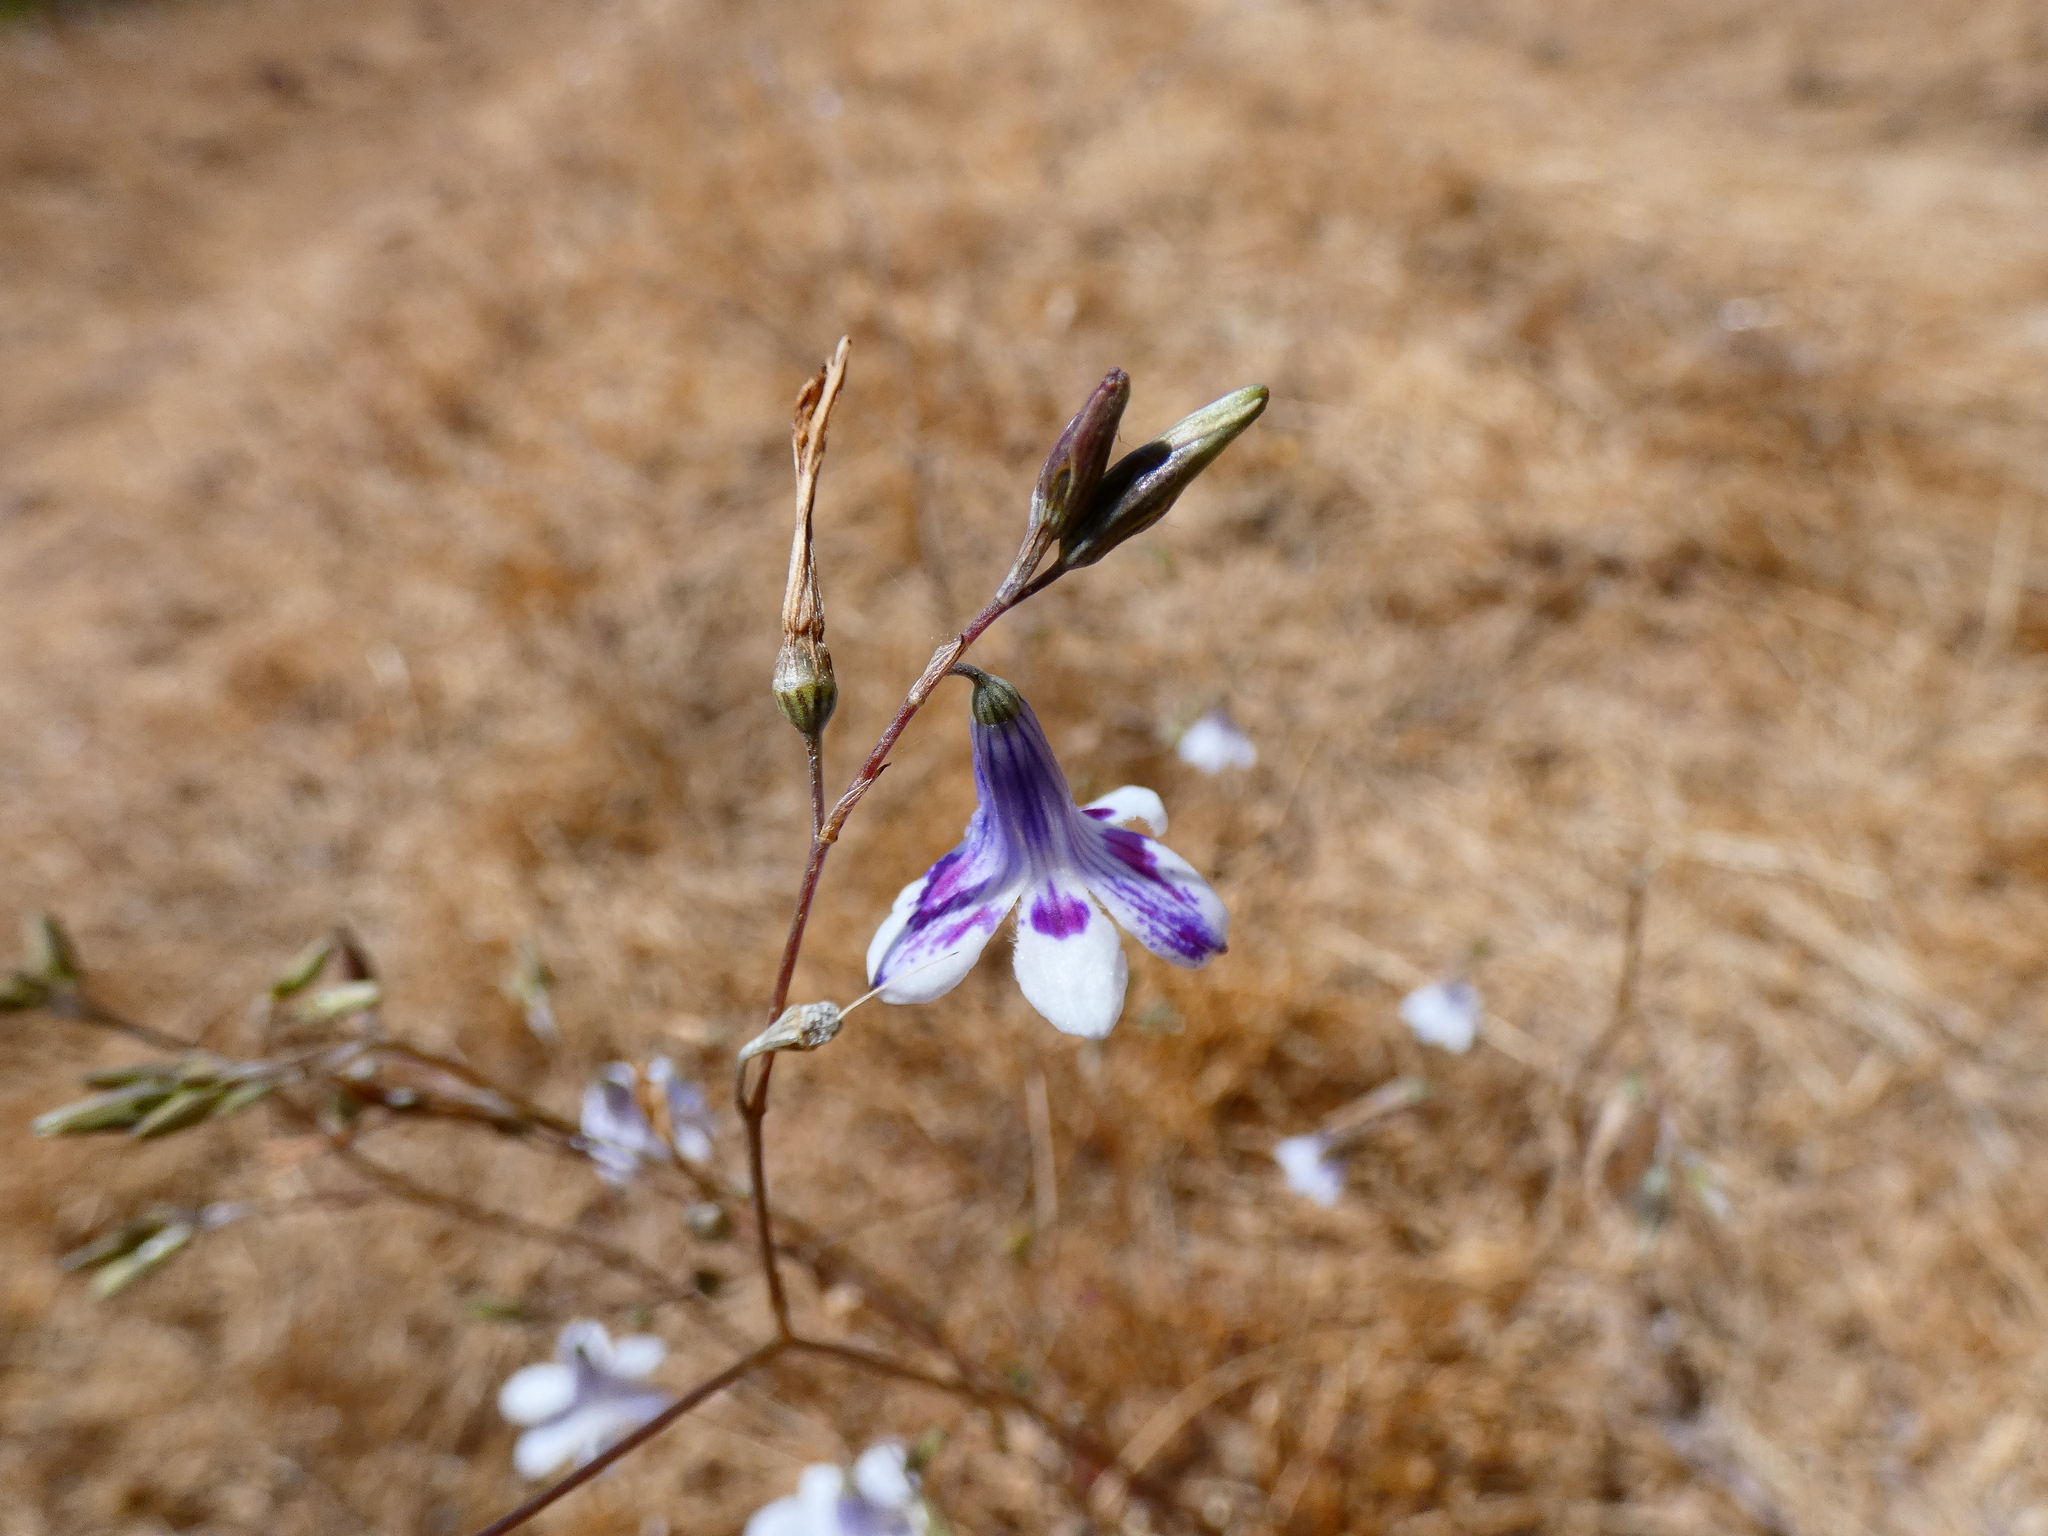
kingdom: Plantae
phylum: Tracheophyta
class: Liliopsida
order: Asparagales
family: Tecophilaeaceae
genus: Conanthera
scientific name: Conanthera campanulata
